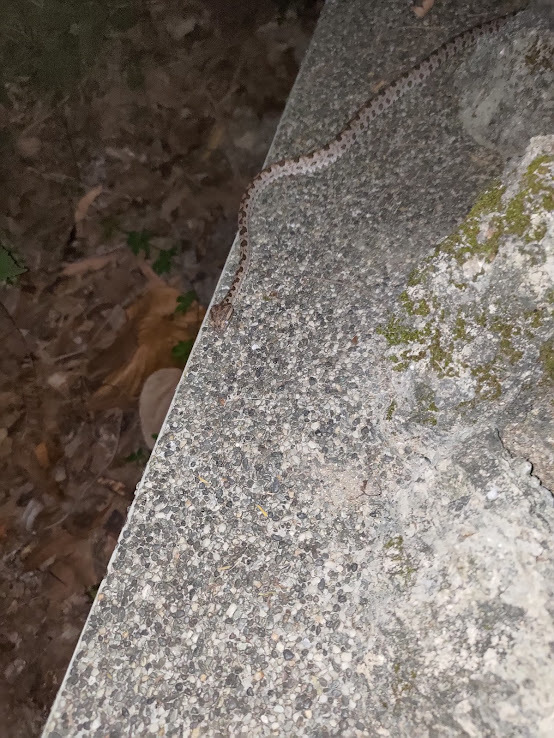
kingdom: Animalia
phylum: Chordata
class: Squamata
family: Viperidae
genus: Protobothrops
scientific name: Protobothrops mucrosquamatus
